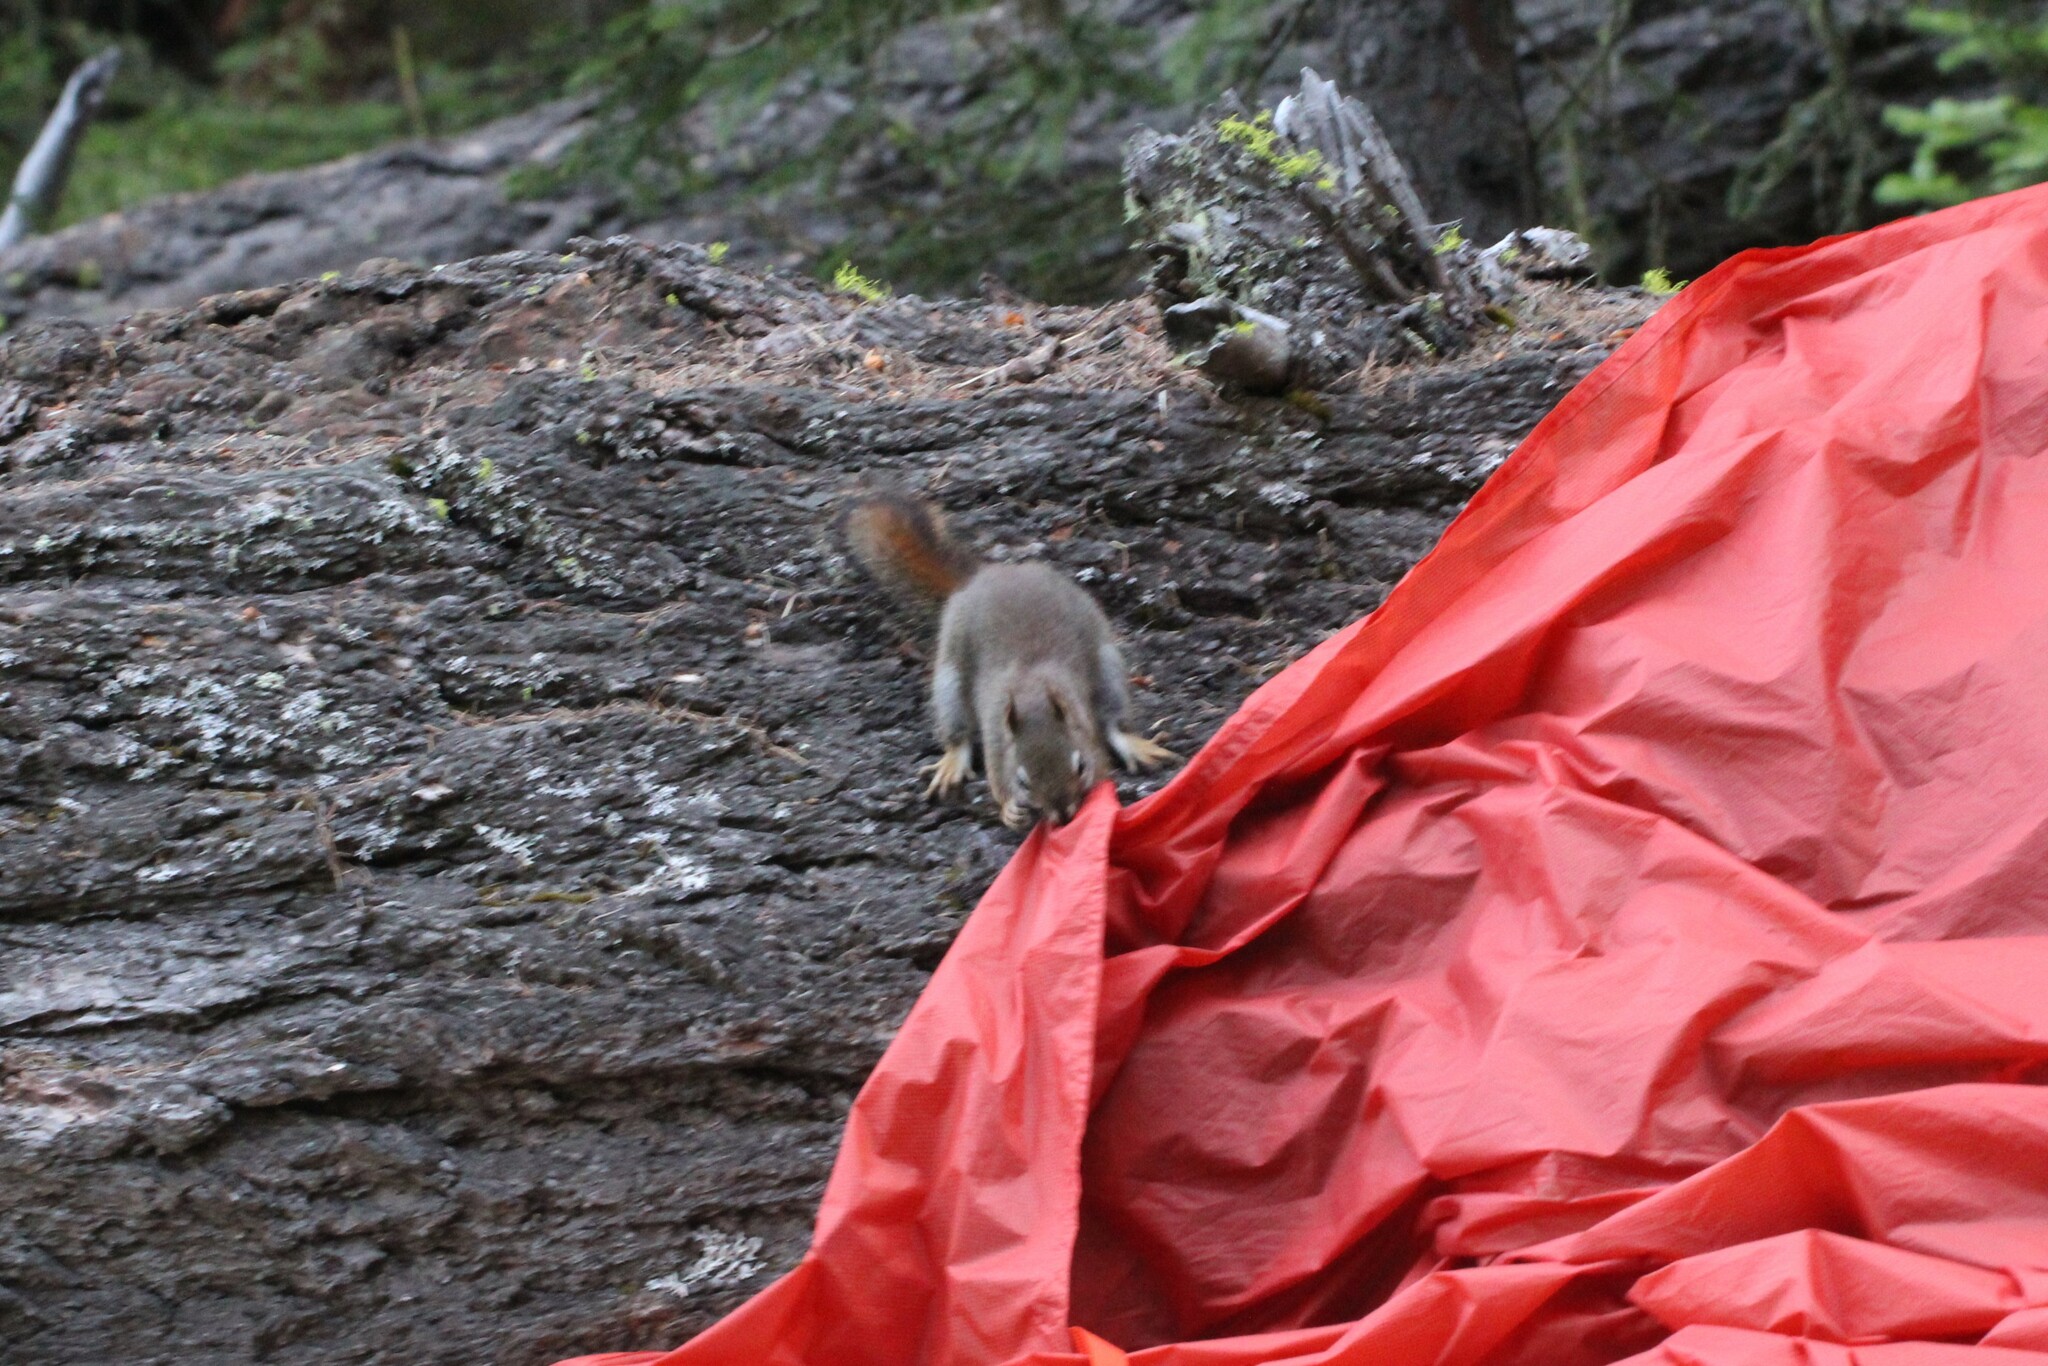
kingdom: Animalia
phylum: Chordata
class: Mammalia
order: Rodentia
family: Sciuridae
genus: Tamiasciurus
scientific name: Tamiasciurus hudsonicus
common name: Red squirrel
